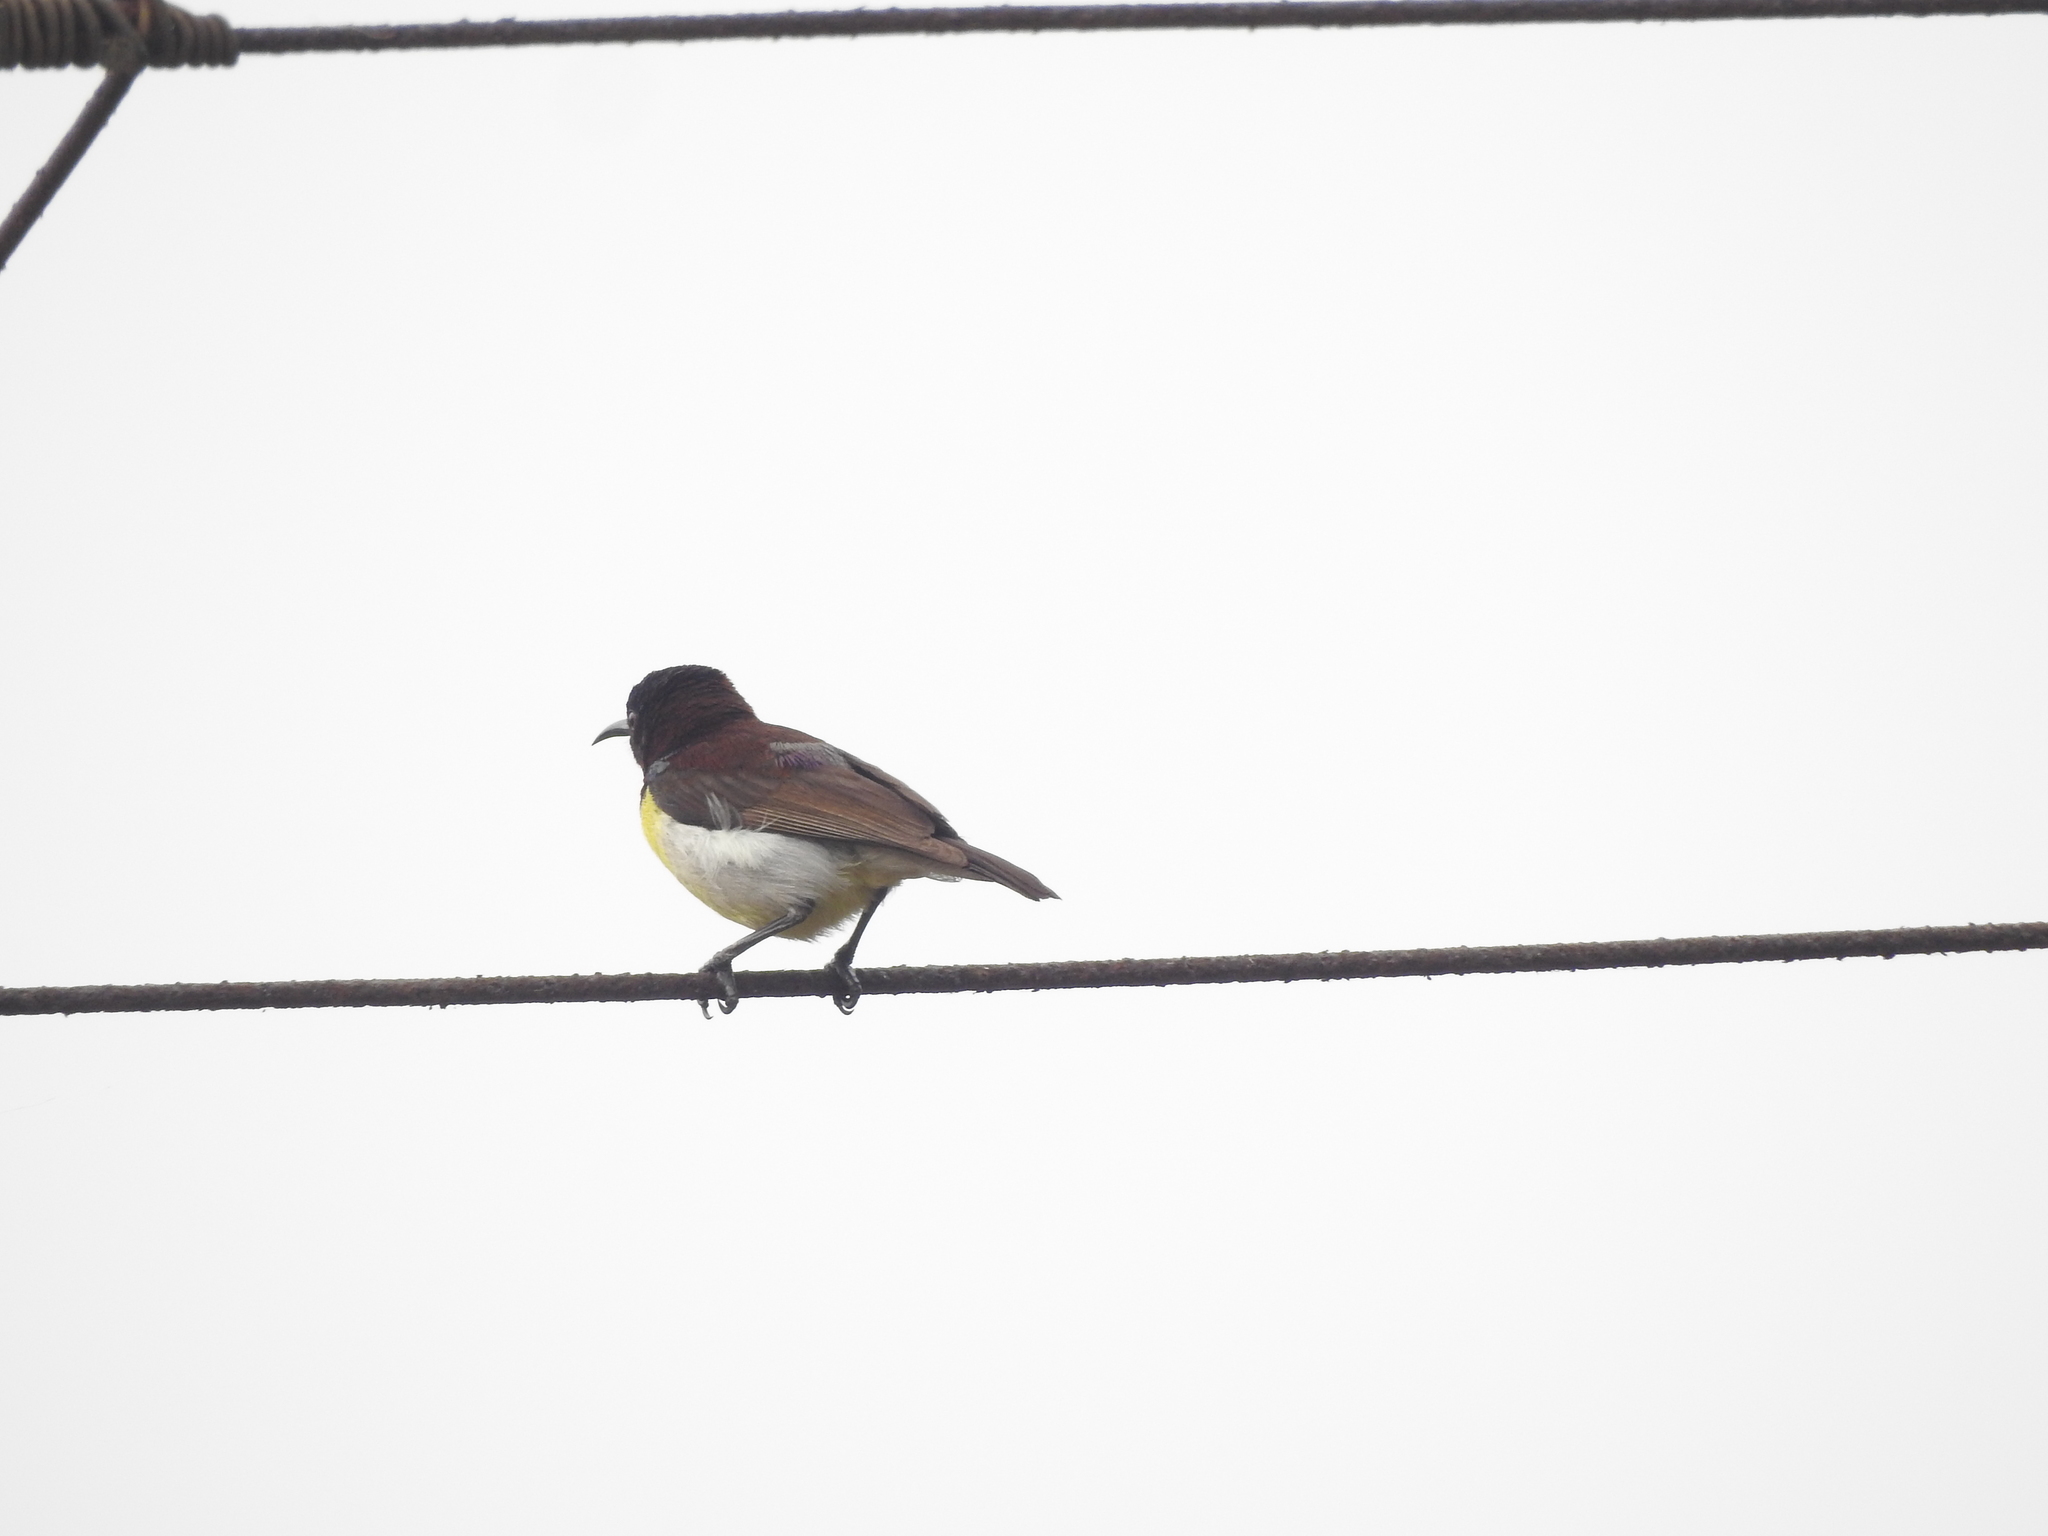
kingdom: Animalia
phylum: Chordata
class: Aves
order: Passeriformes
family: Nectariniidae
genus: Leptocoma
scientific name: Leptocoma zeylonica
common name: Purple-rumped sunbird
